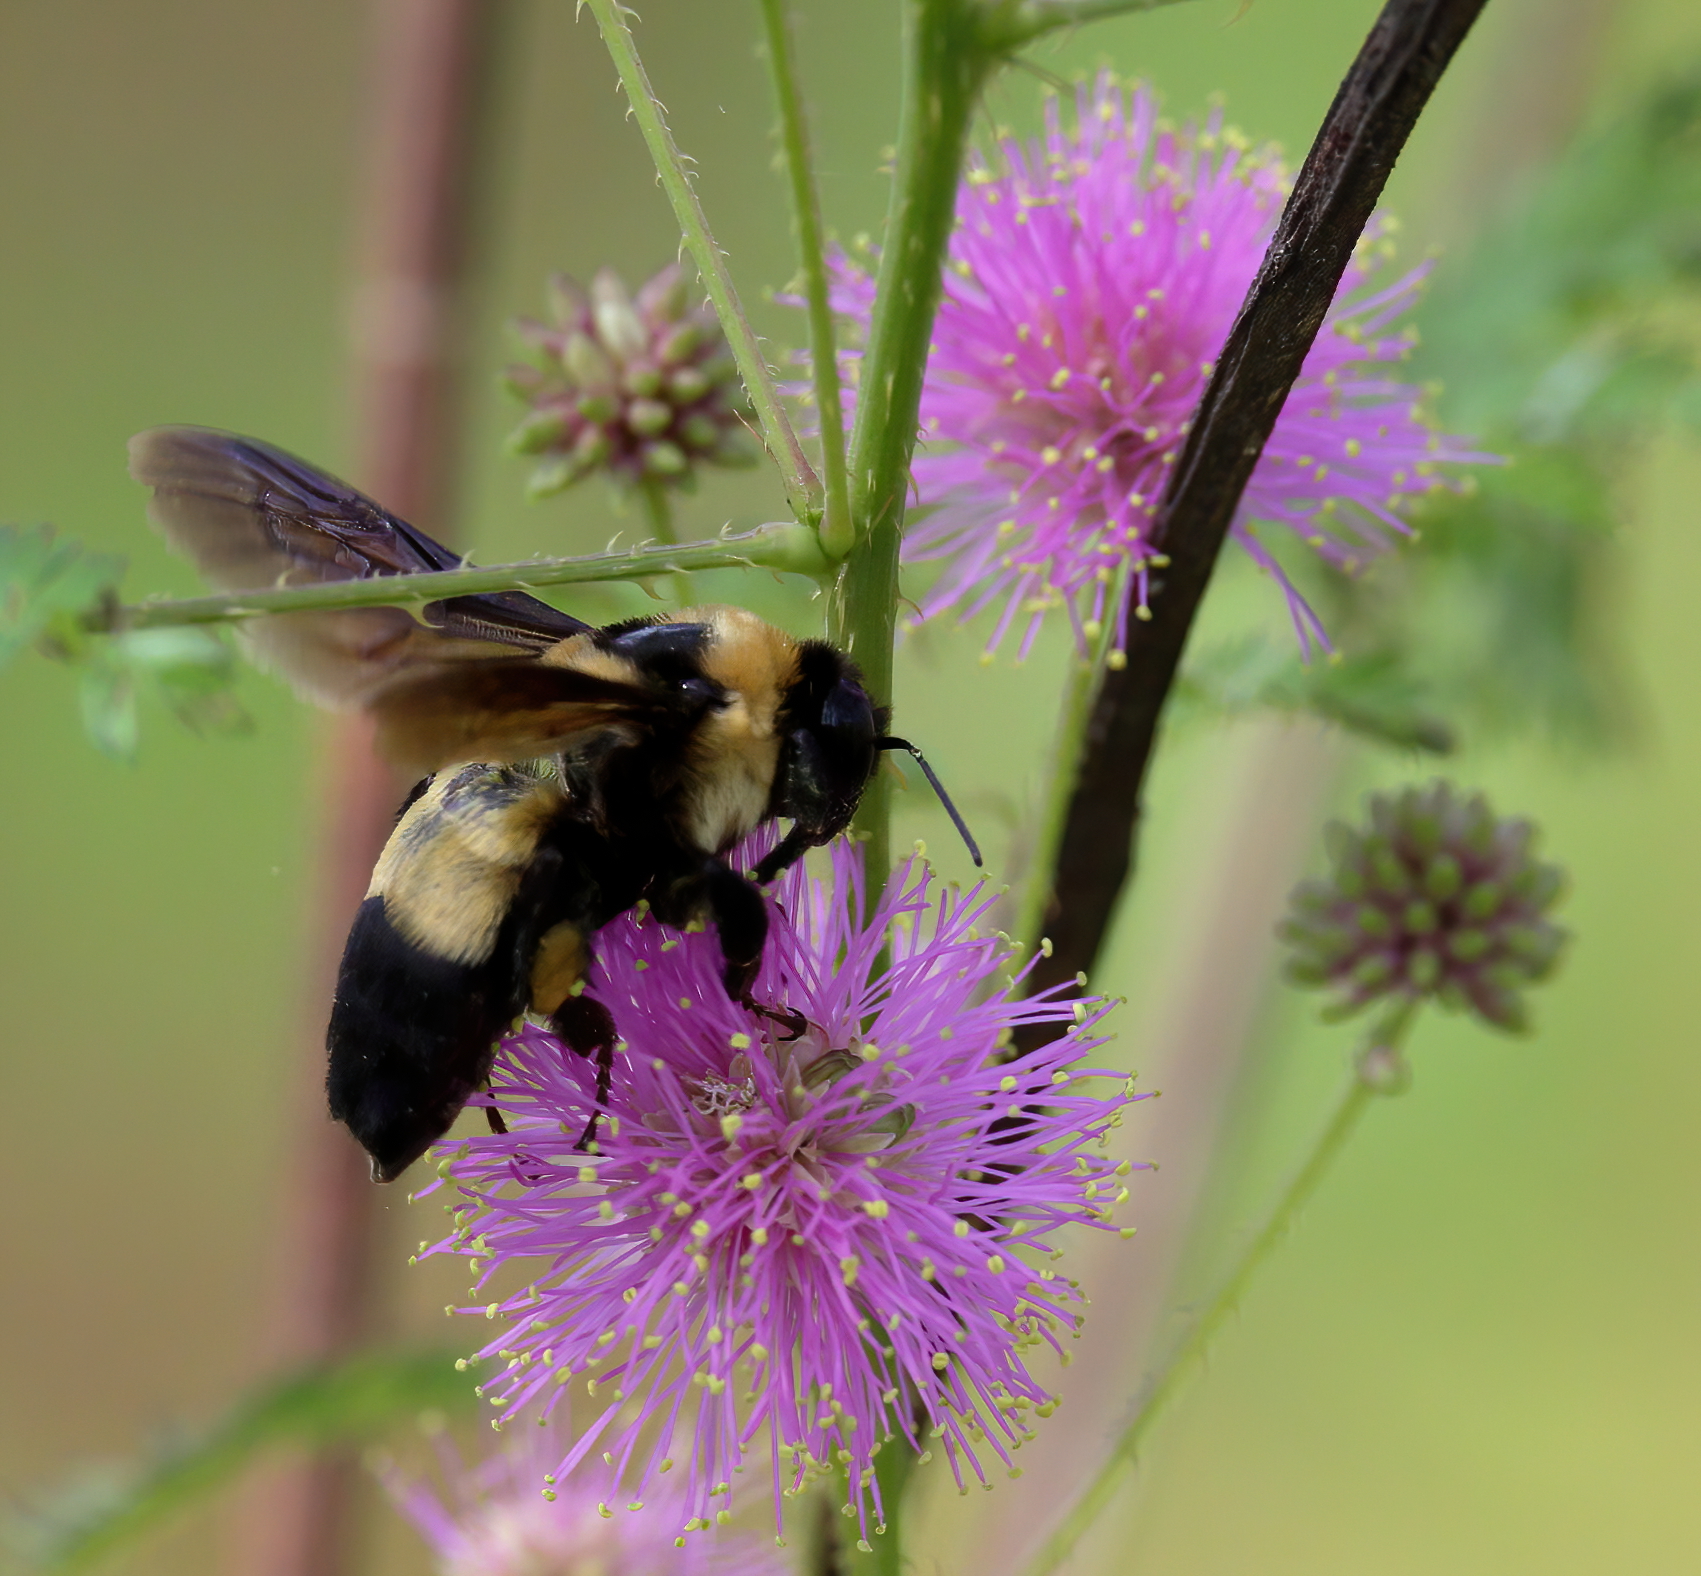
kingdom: Animalia
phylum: Arthropoda
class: Insecta
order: Hymenoptera
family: Apidae
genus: Bombus
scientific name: Bombus fraternus
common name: Southern plains bumble bee
